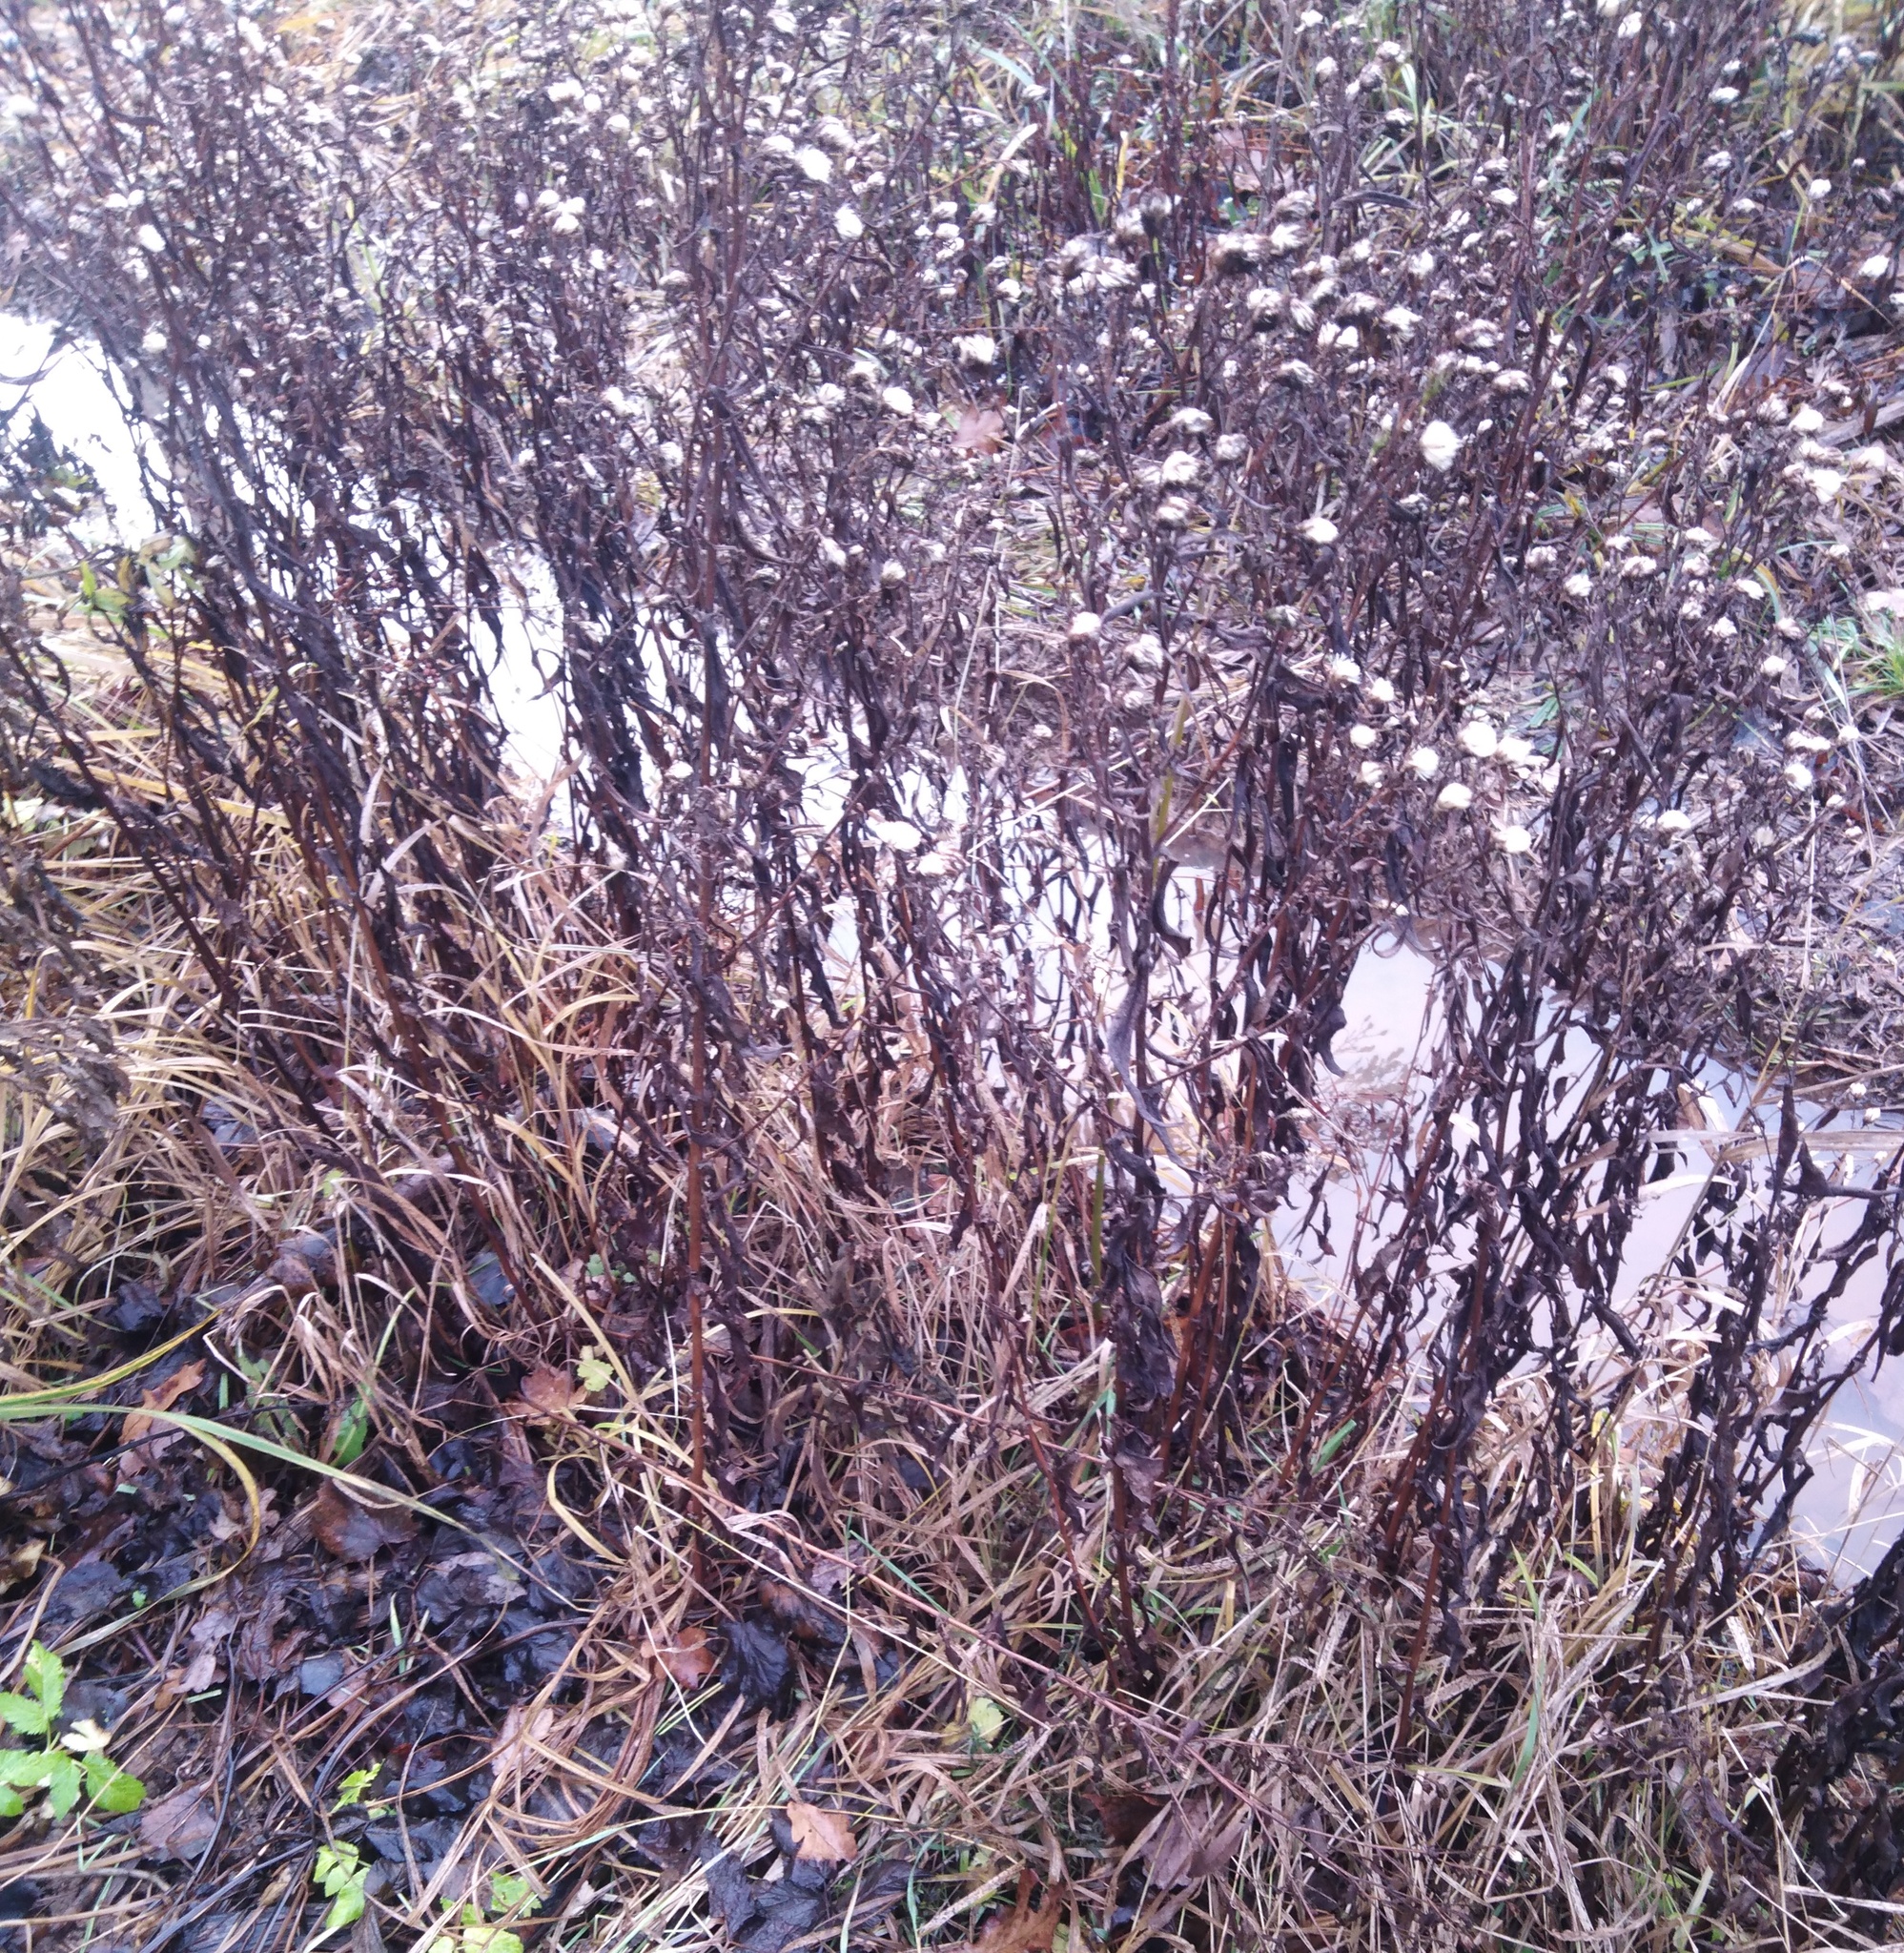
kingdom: Plantae
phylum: Tracheophyta
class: Magnoliopsida
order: Asterales
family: Asteraceae
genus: Solidago
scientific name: Solidago canadensis
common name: Canada goldenrod
